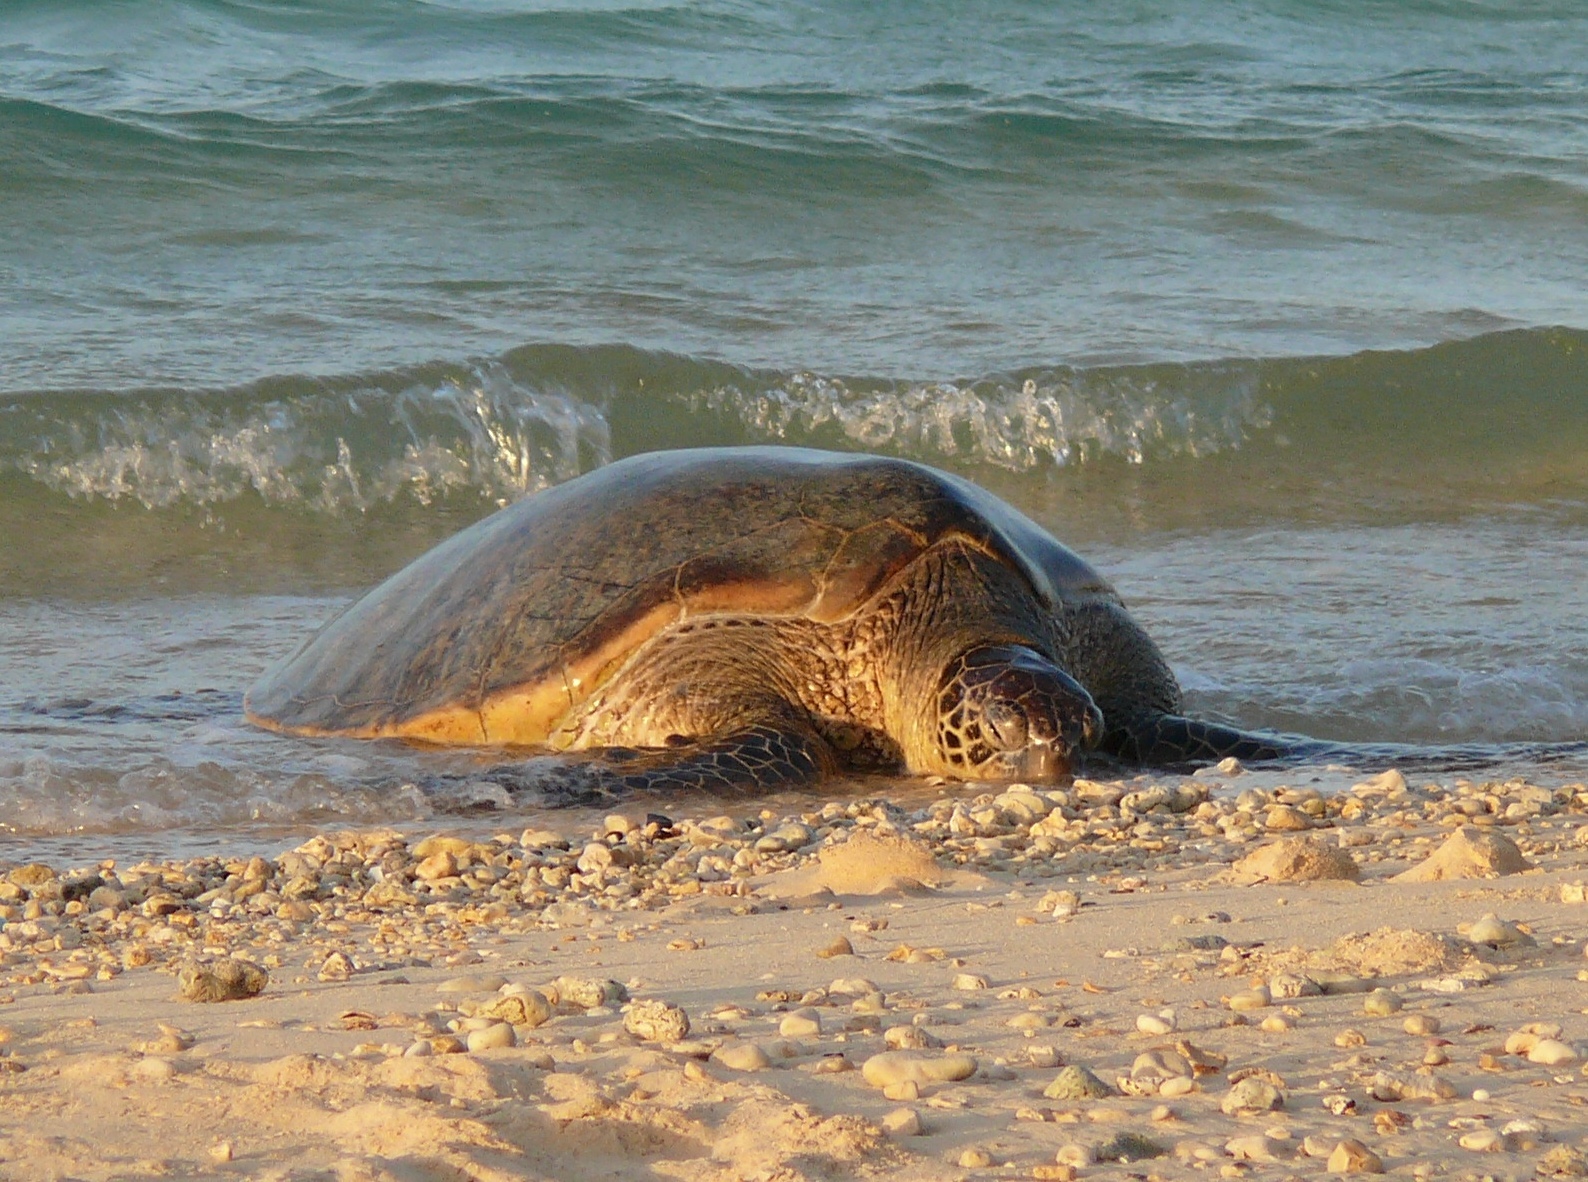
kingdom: Animalia
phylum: Chordata
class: Testudines
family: Cheloniidae
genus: Chelonia
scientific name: Chelonia mydas
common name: Green turtle
